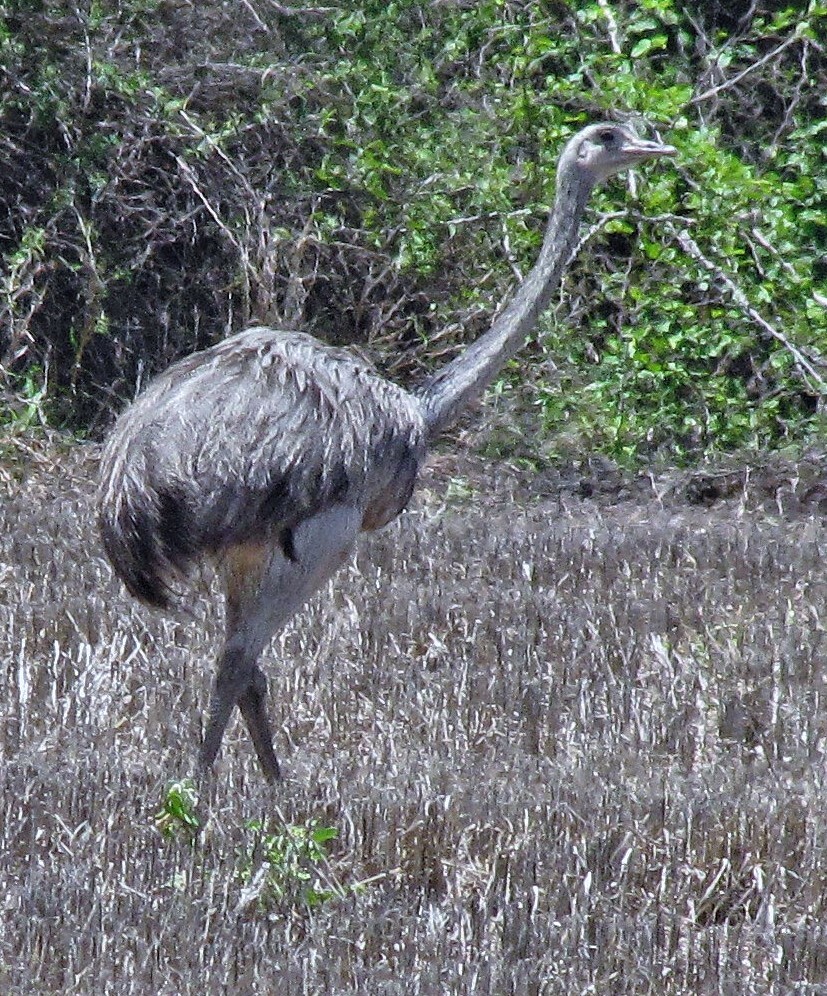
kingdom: Animalia
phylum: Chordata
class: Aves
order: Rheiformes
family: Rheidae
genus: Rhea
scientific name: Rhea americana
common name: Greater rhea
